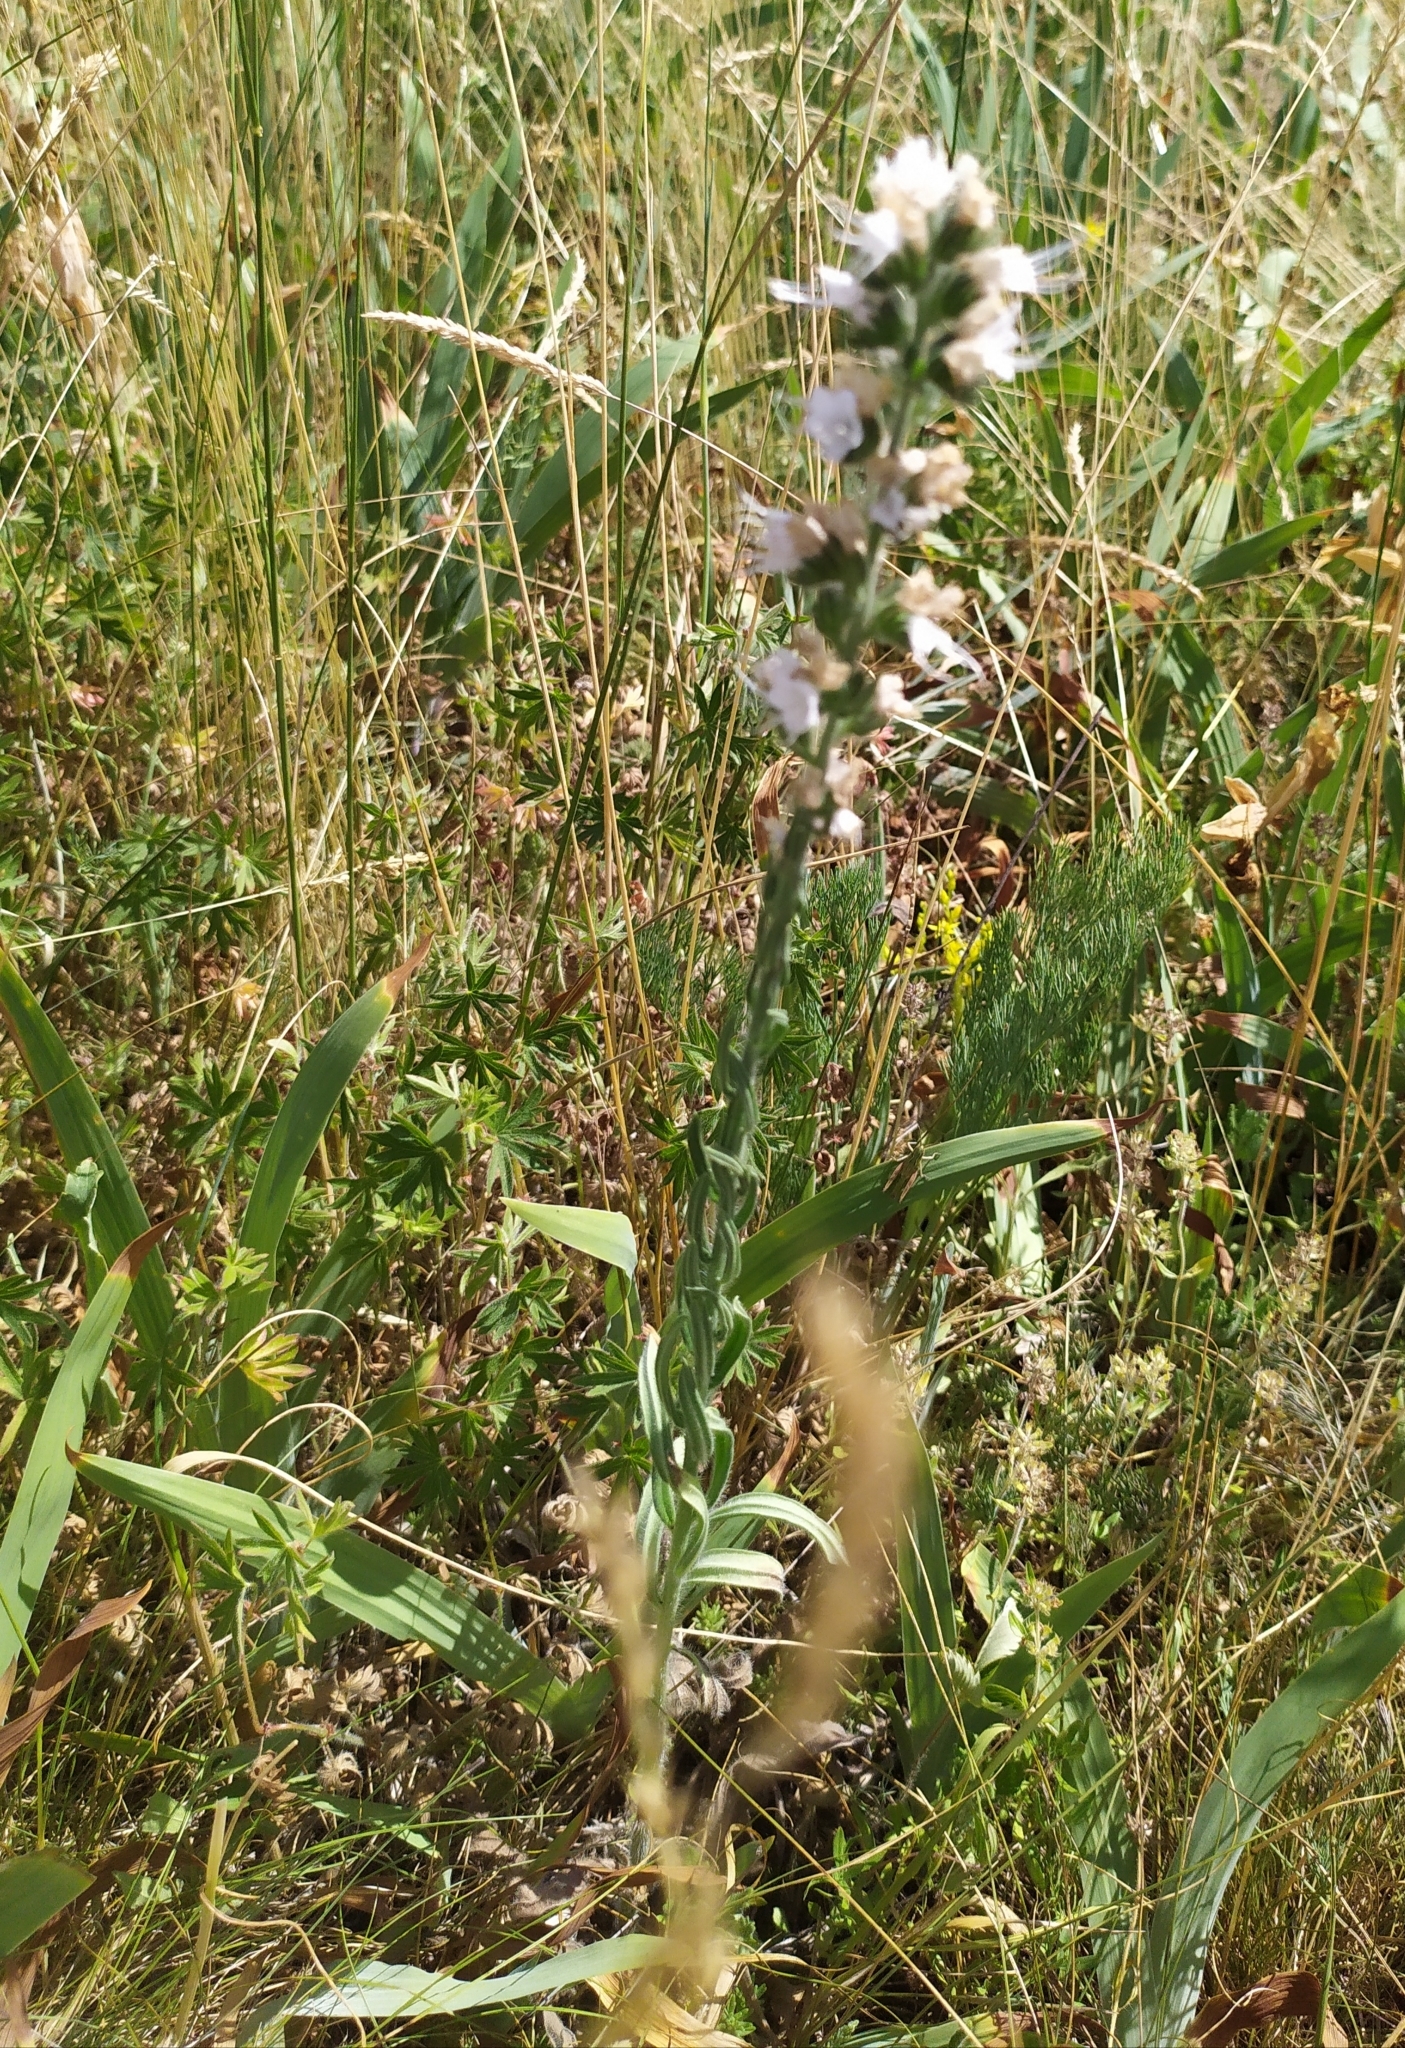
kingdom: Plantae
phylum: Tracheophyta
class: Magnoliopsida
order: Boraginales
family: Boraginaceae
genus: Echium
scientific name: Echium vulgare
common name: Common viper's bugloss
